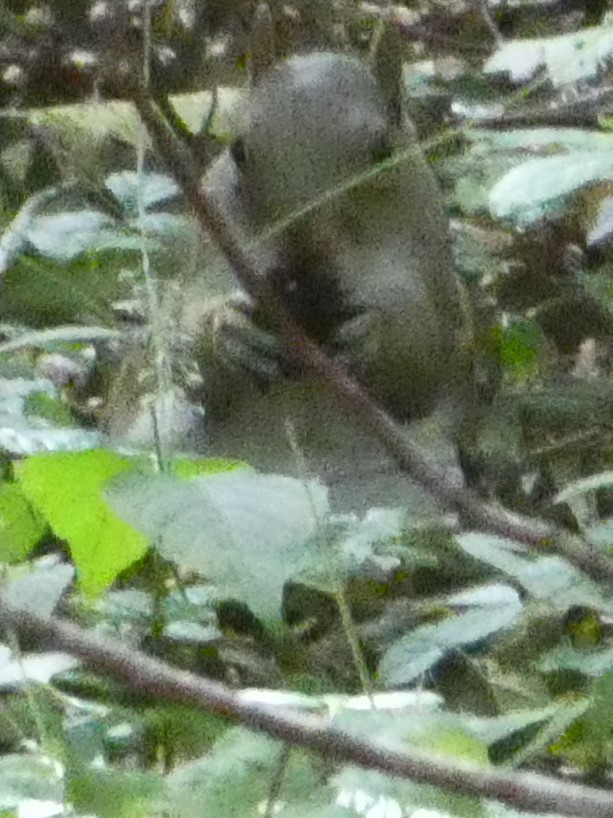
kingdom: Animalia
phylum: Chordata
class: Mammalia
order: Rodentia
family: Sciuridae
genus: Sciurus
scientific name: Sciurus carolinensis
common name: Eastern gray squirrel
